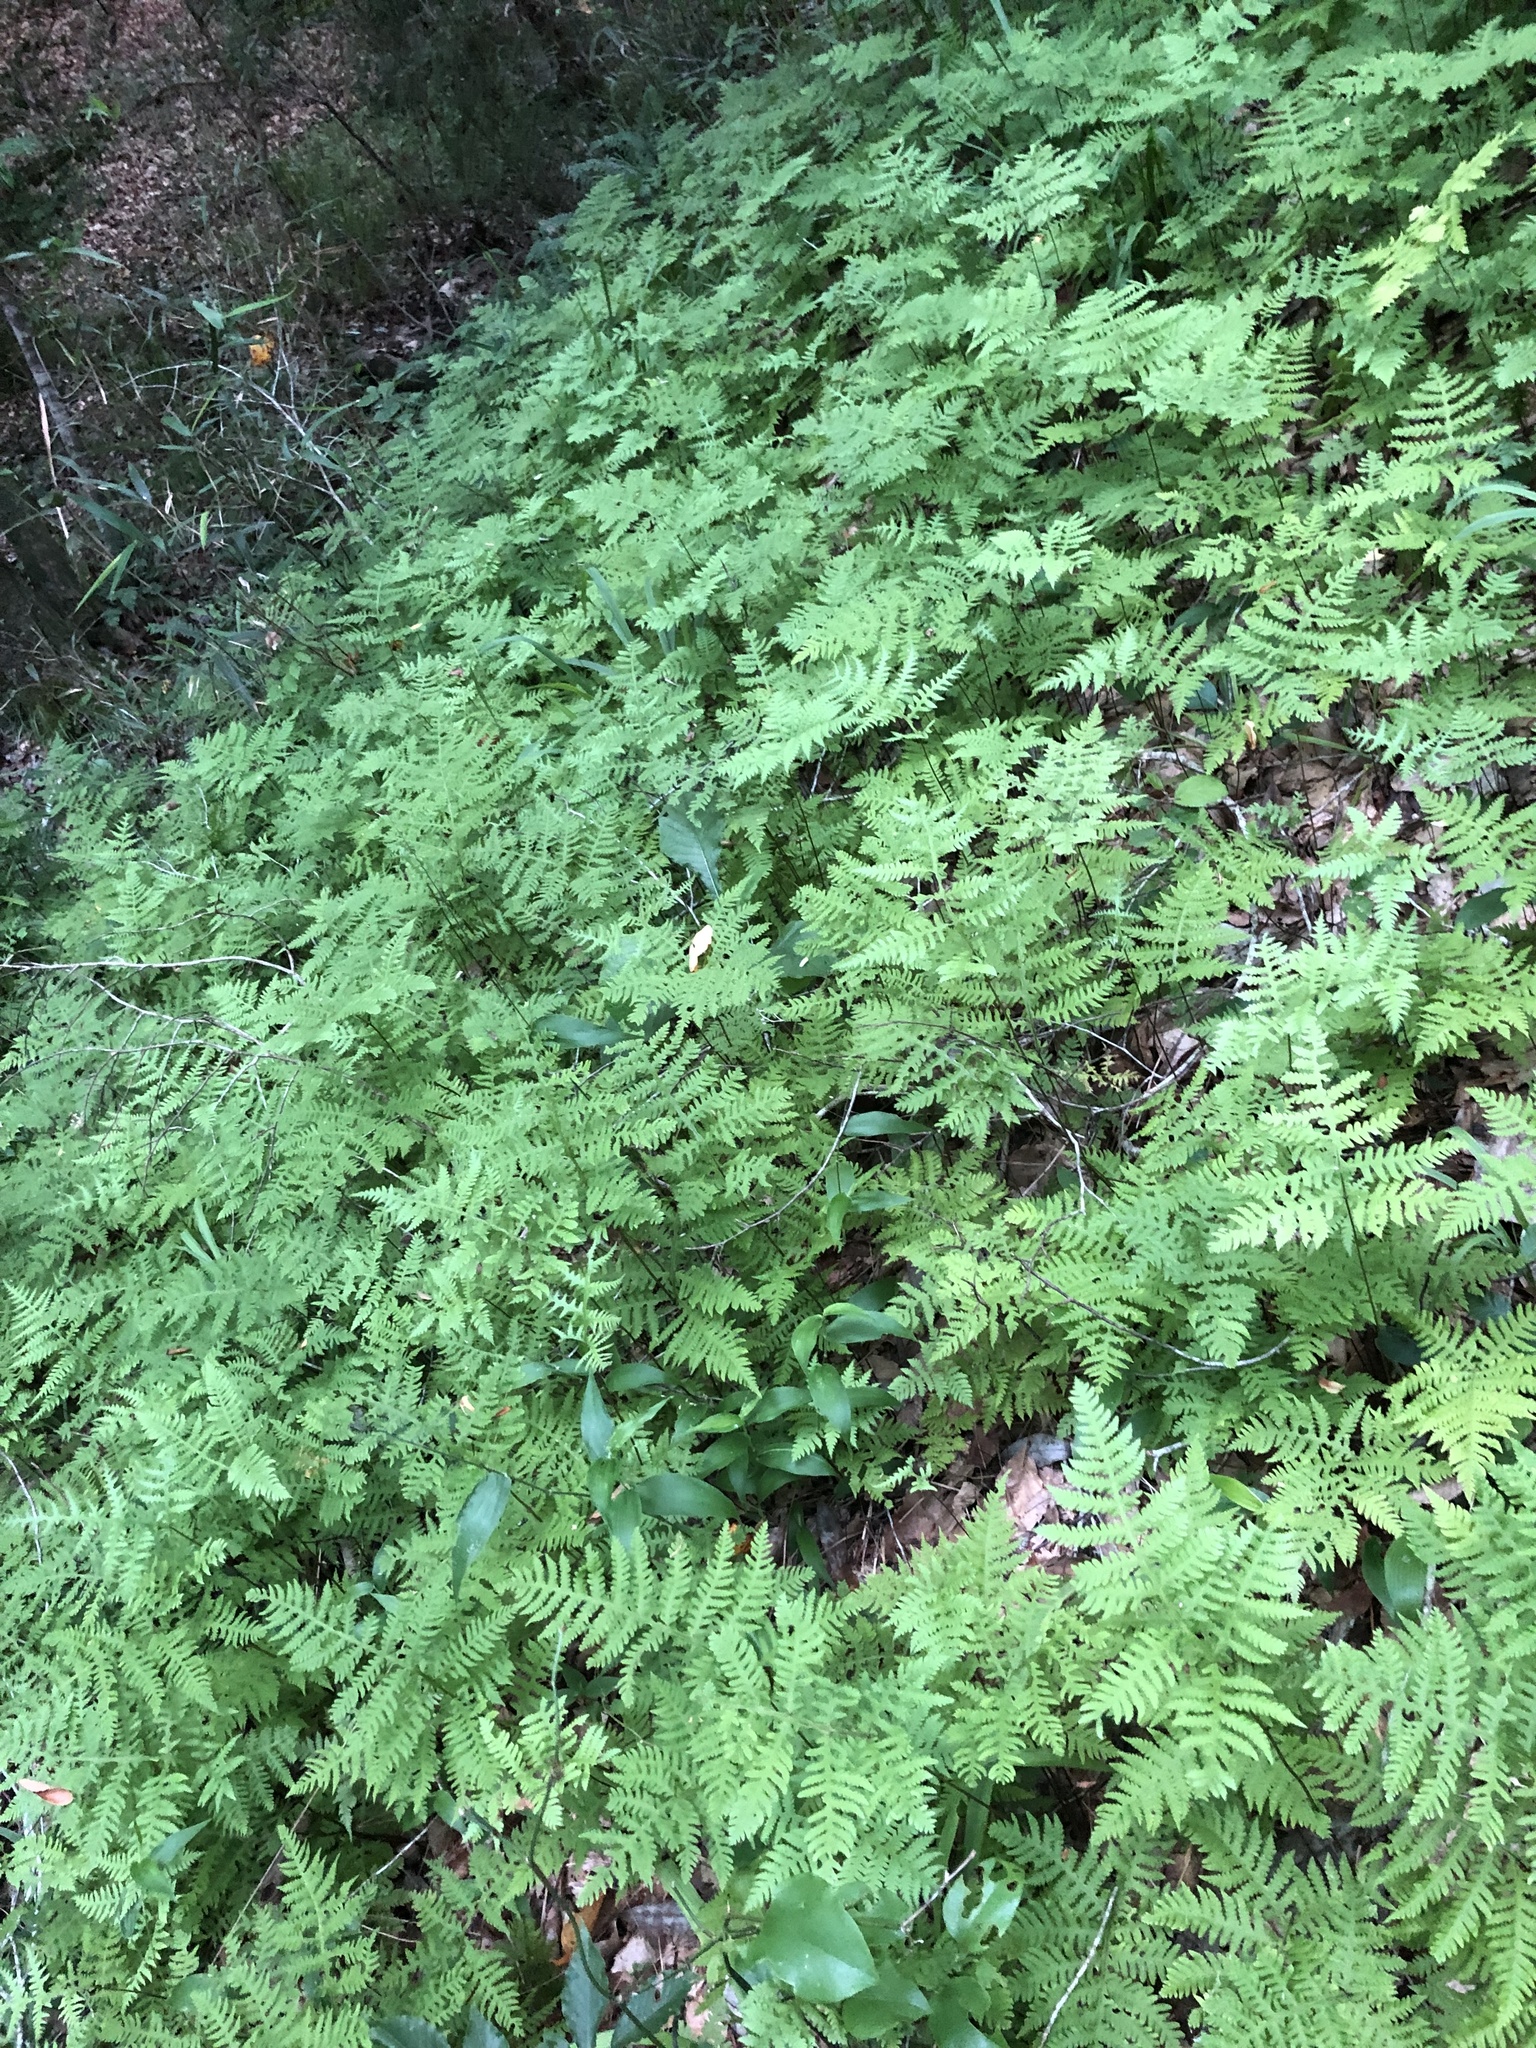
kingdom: Plantae
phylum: Tracheophyta
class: Polypodiopsida
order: Polypodiales
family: Thelypteridaceae
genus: Phegopteris
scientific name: Phegopteris hexagonoptera
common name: Broad beech fern
